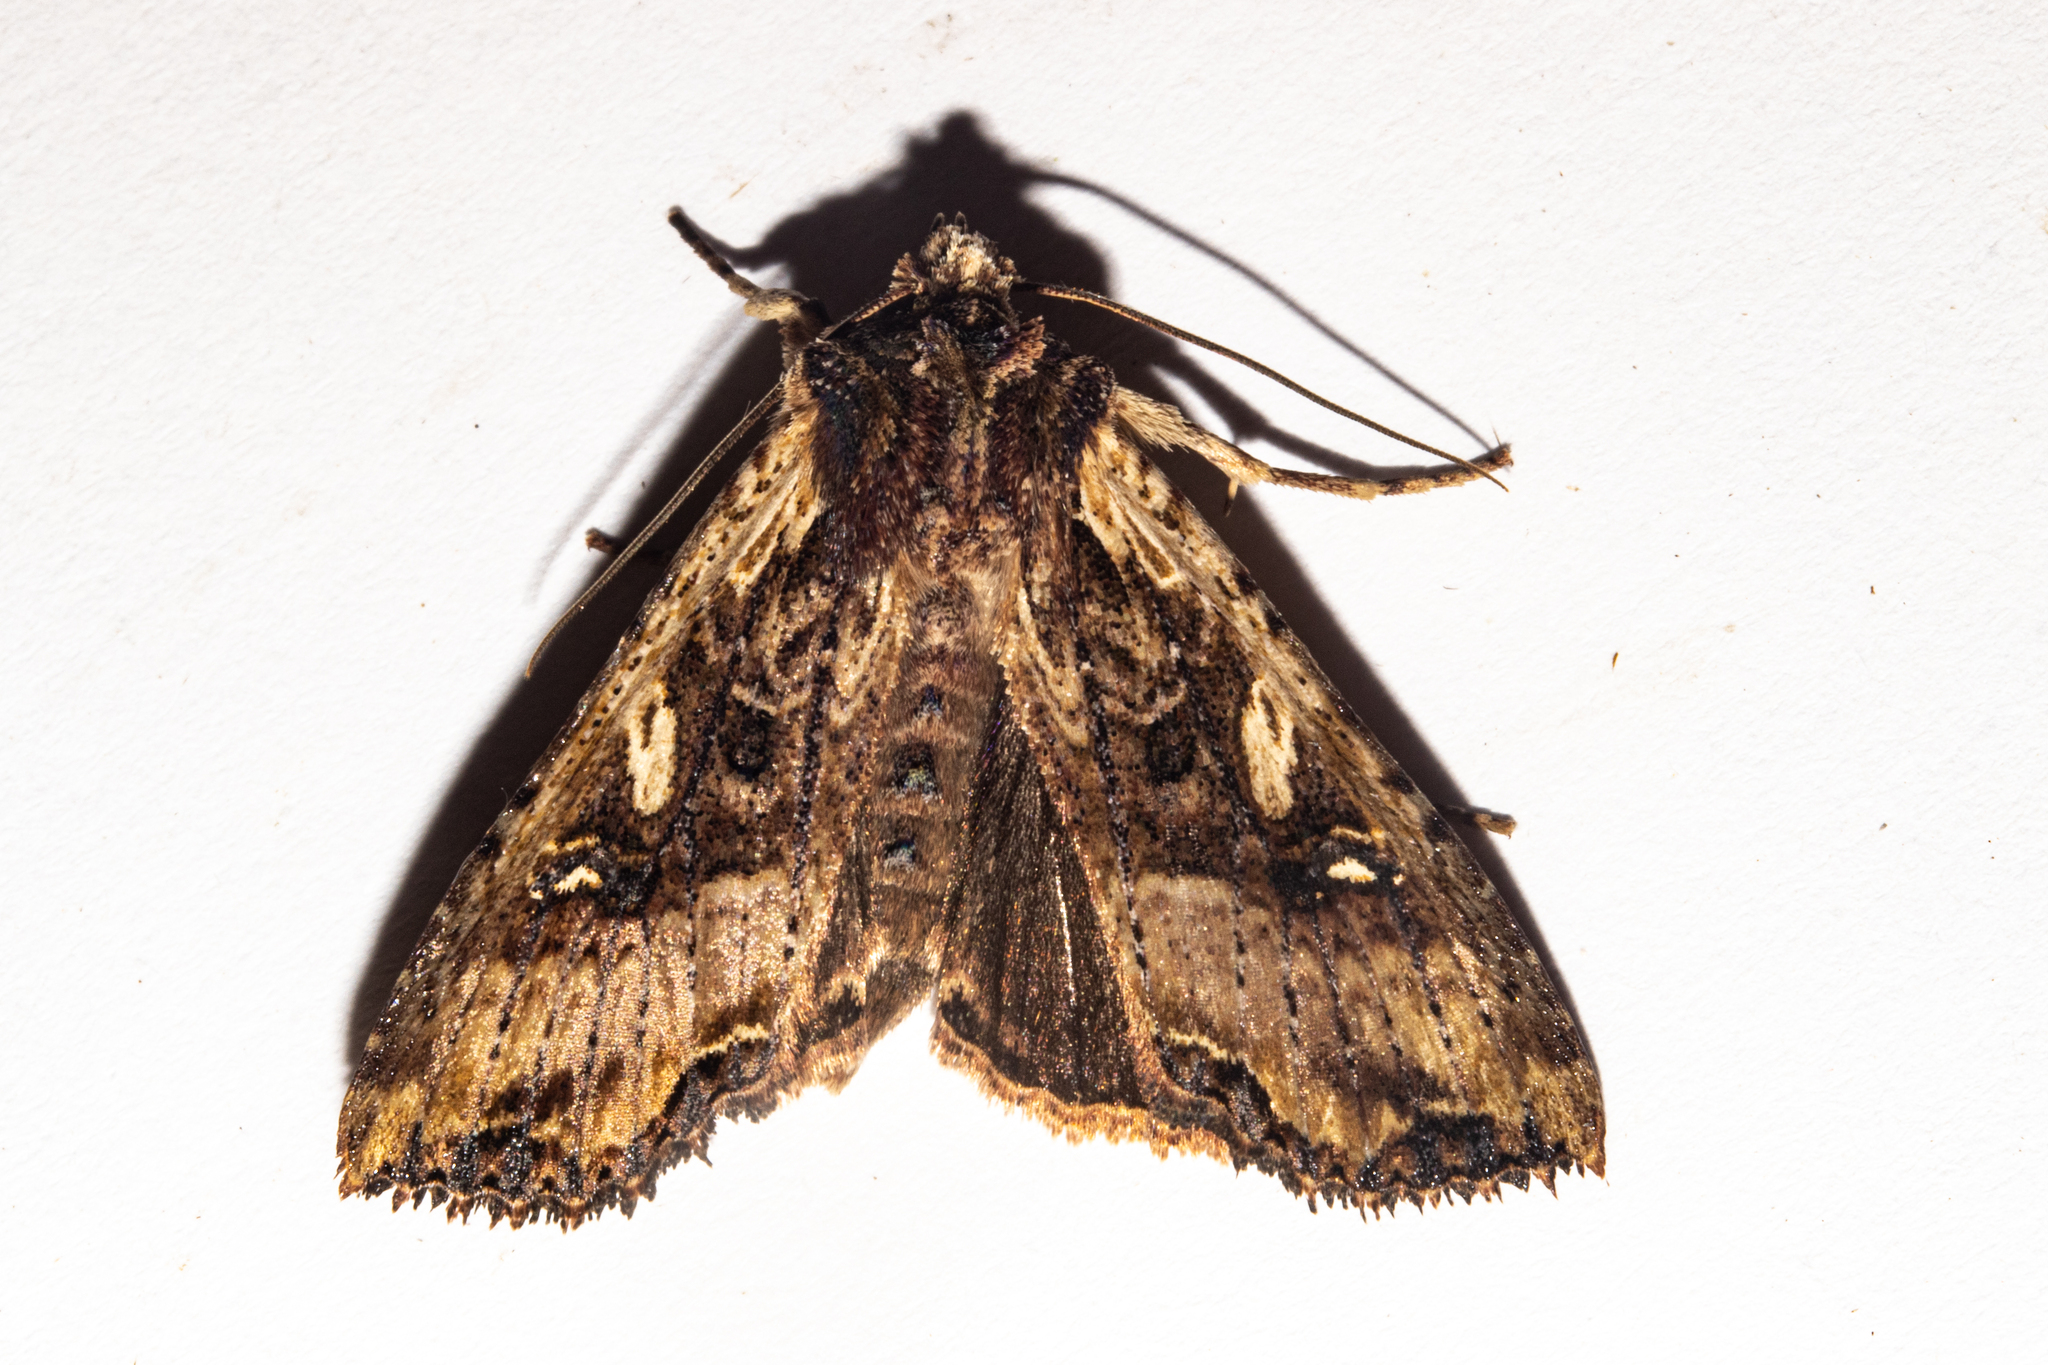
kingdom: Animalia
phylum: Arthropoda
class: Insecta
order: Lepidoptera
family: Noctuidae
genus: Meterana
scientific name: Meterana stipata
